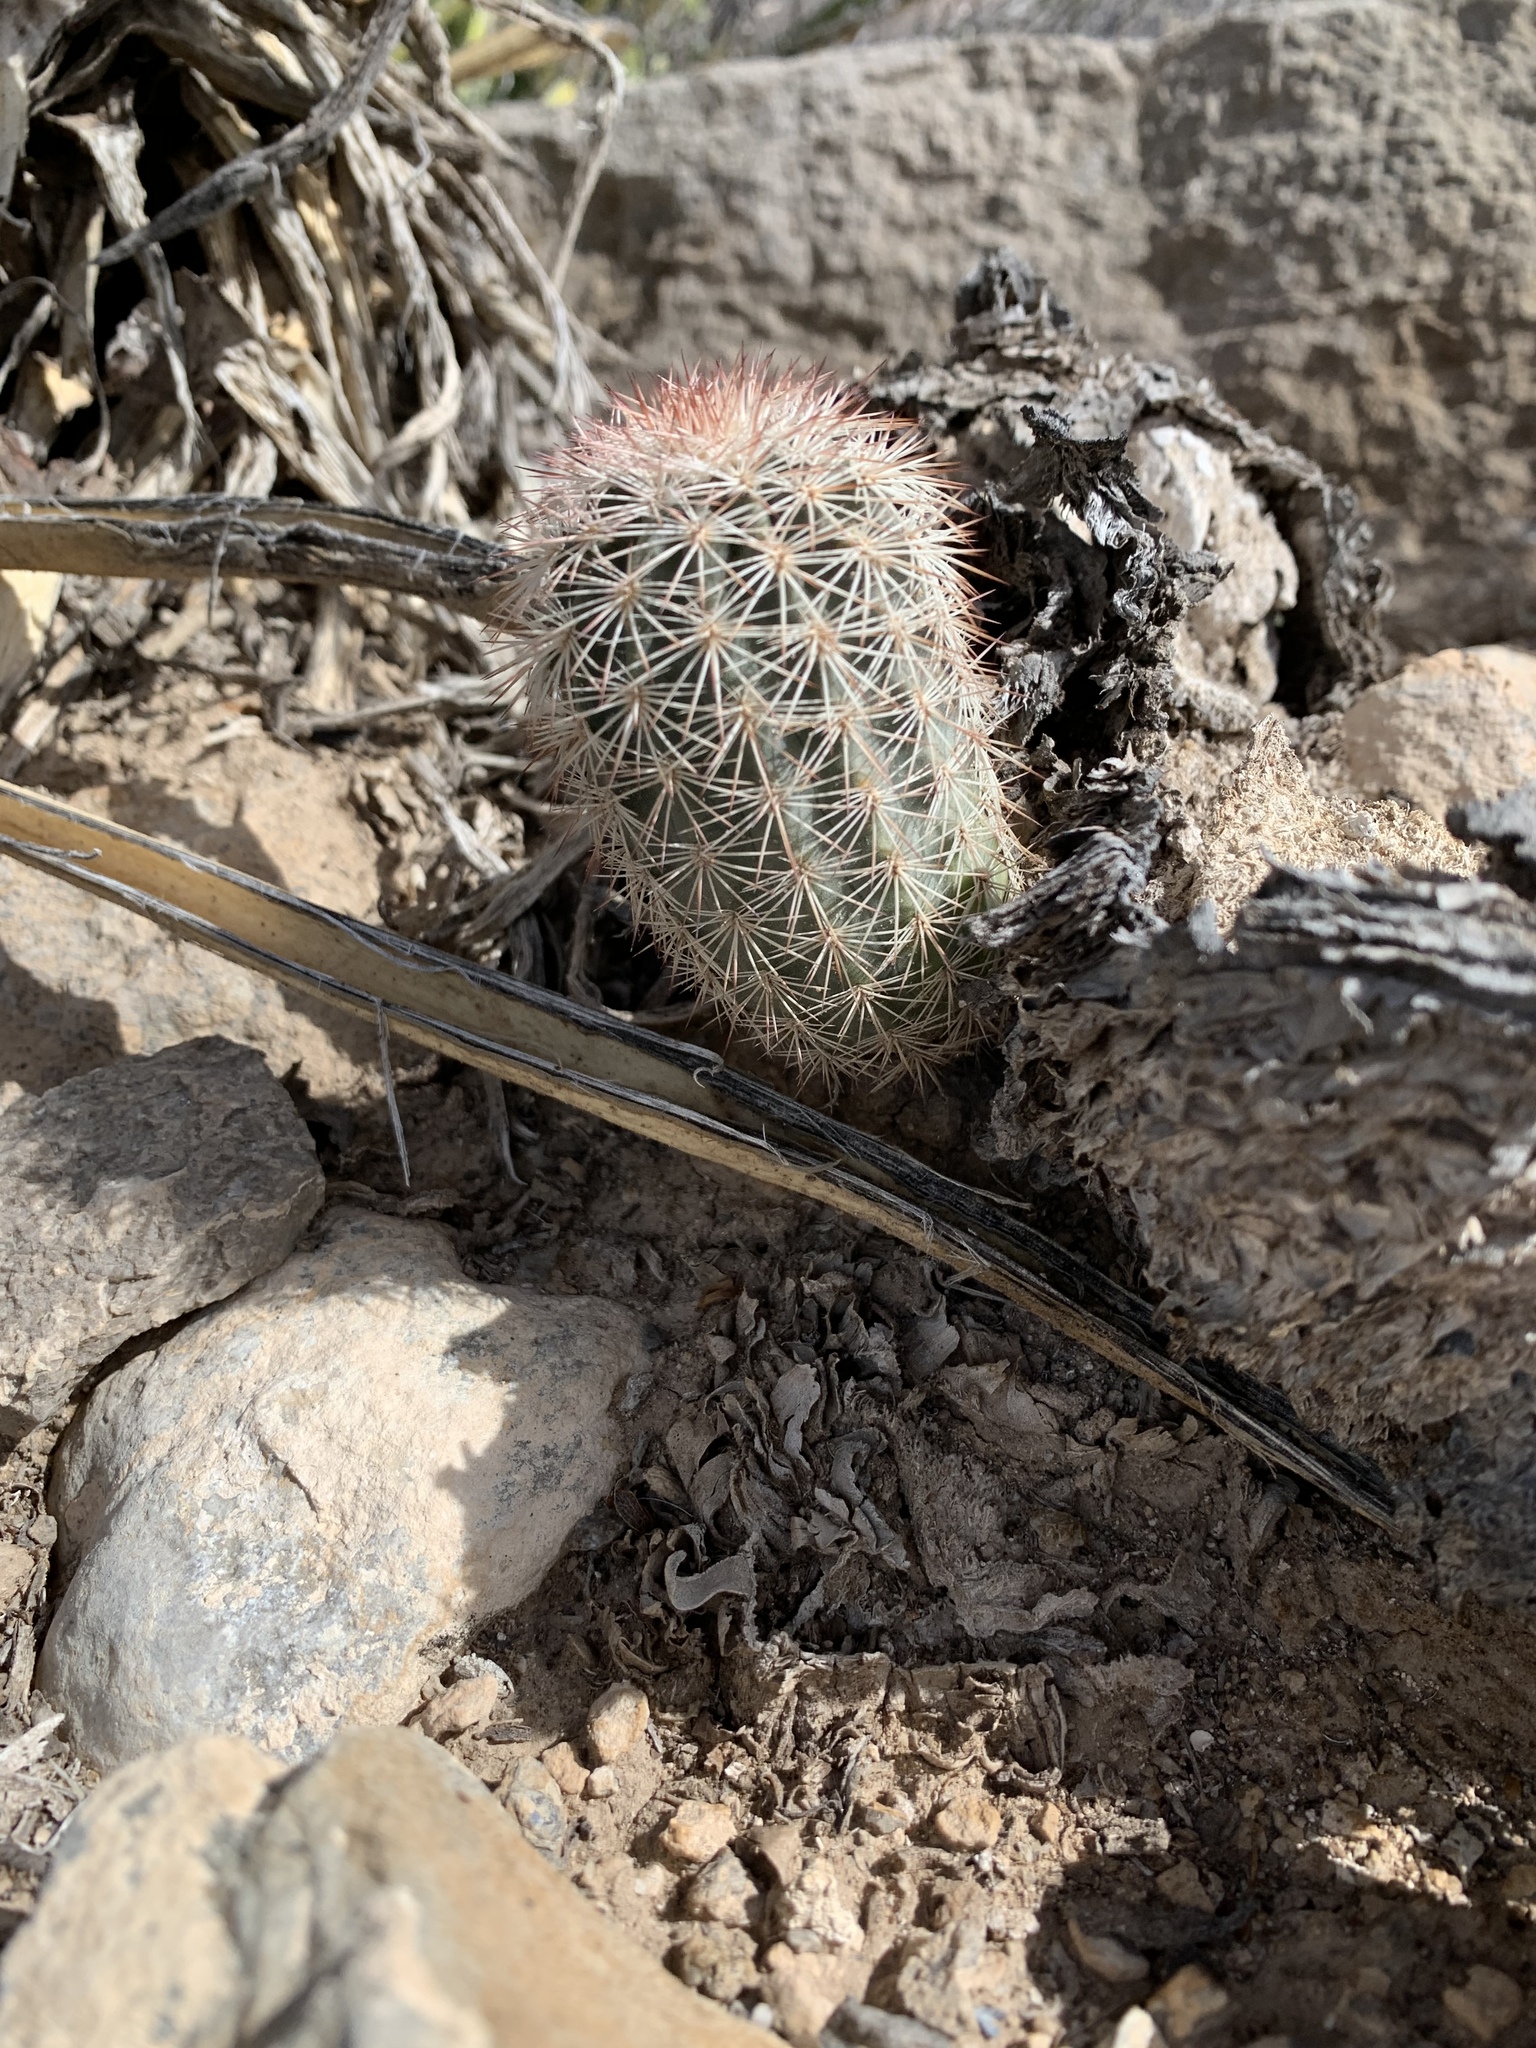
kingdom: Plantae
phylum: Tracheophyta
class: Magnoliopsida
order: Caryophyllales
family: Cactaceae
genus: Echinocereus
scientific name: Echinocereus dasyacanthus
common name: Spiny hedgehog cactus
